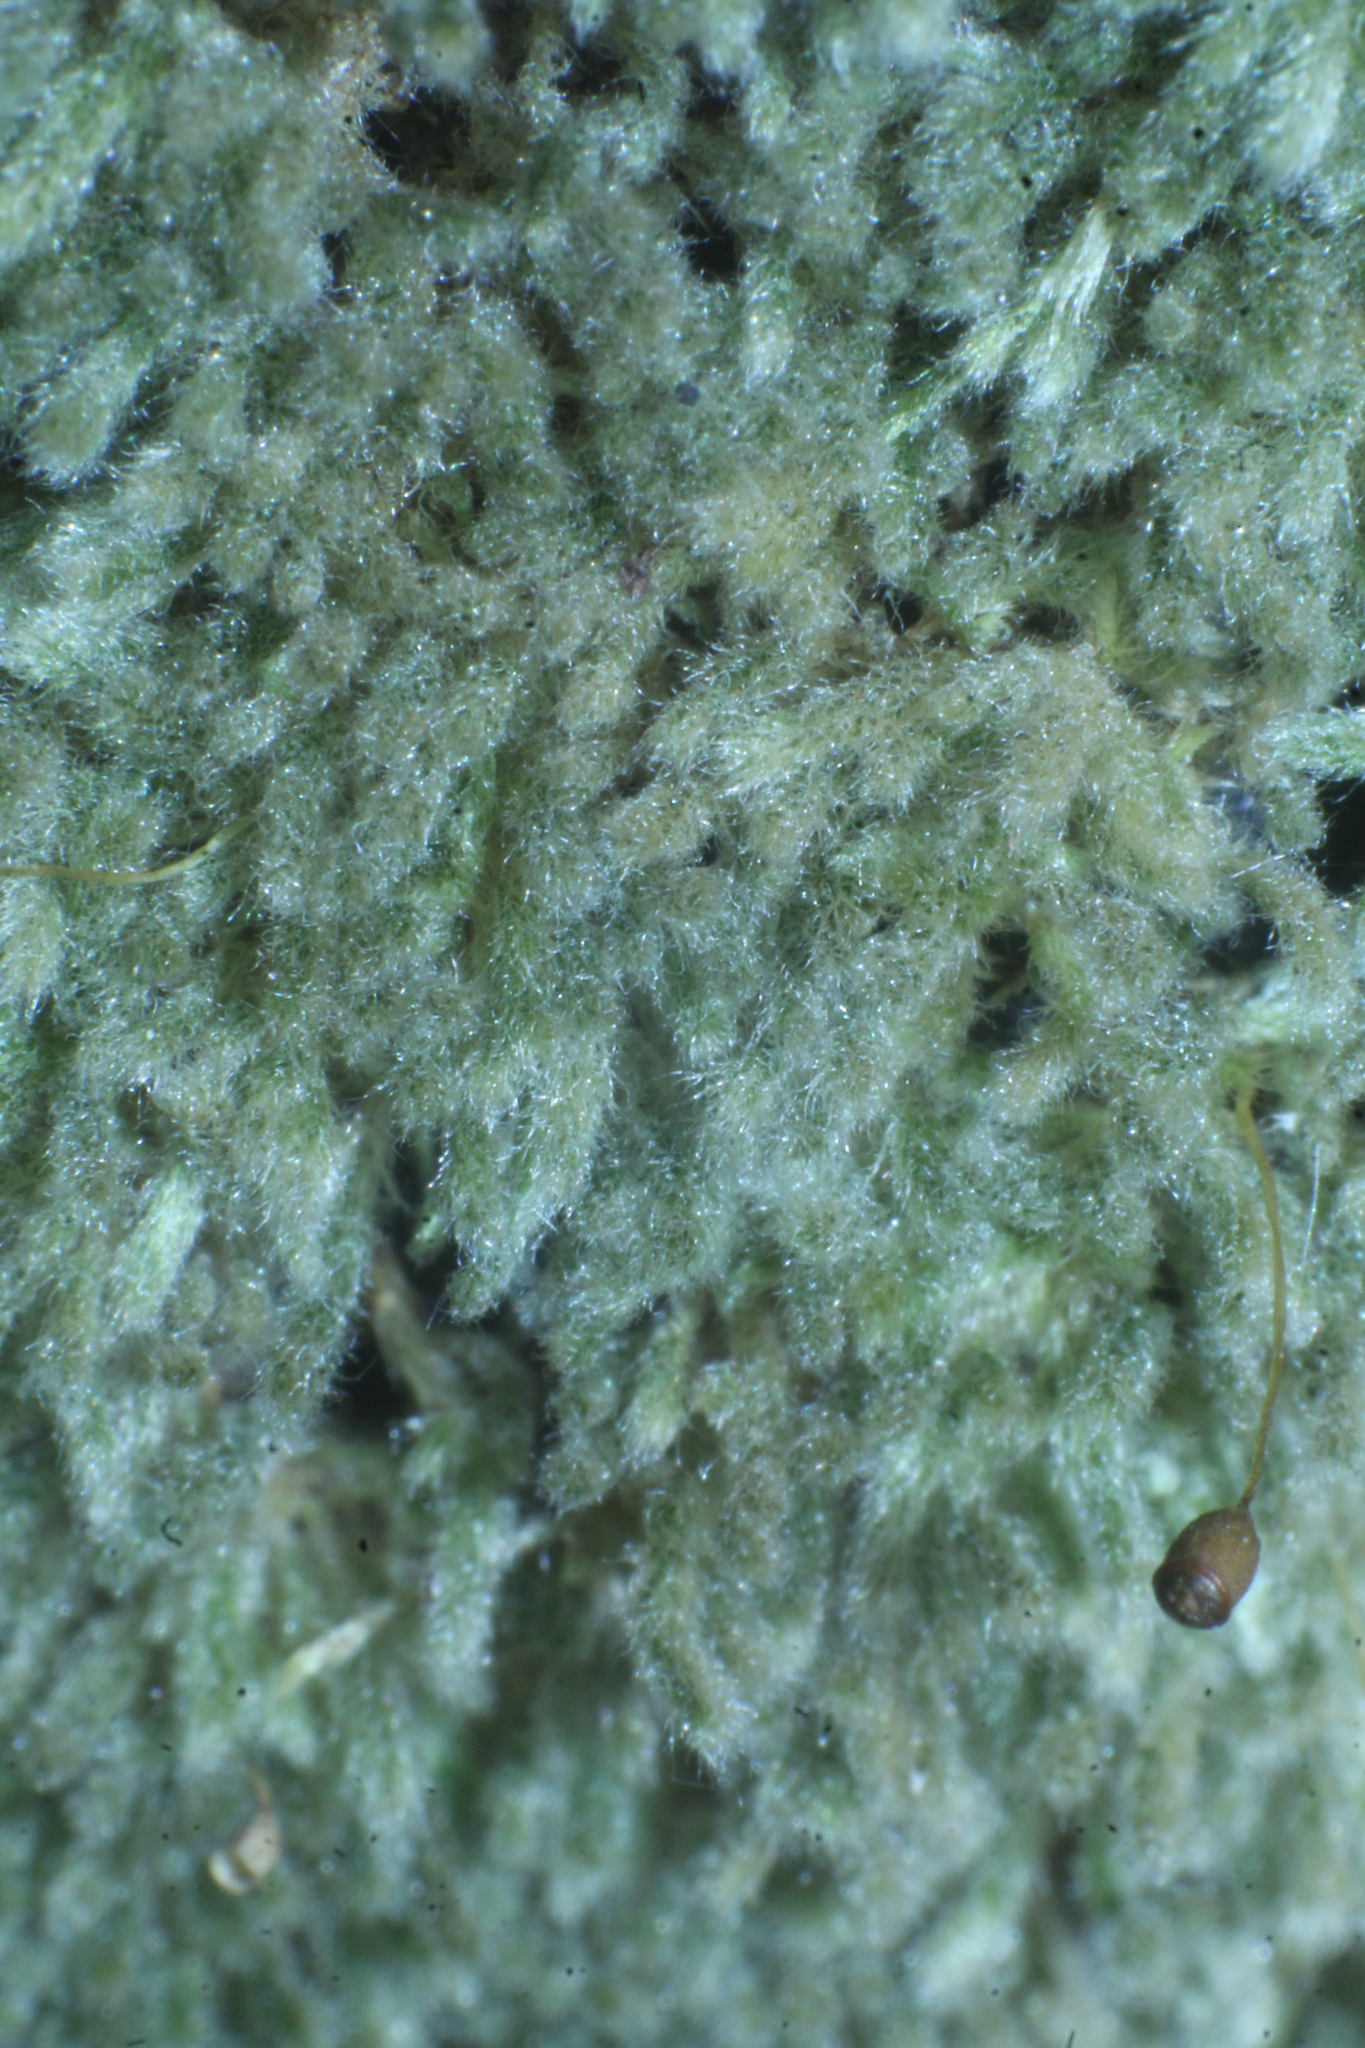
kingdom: Plantae
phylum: Bryophyta
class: Bryopsida
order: Hypnales
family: Fabroniaceae
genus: Fabronia
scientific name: Fabronia hampeana
